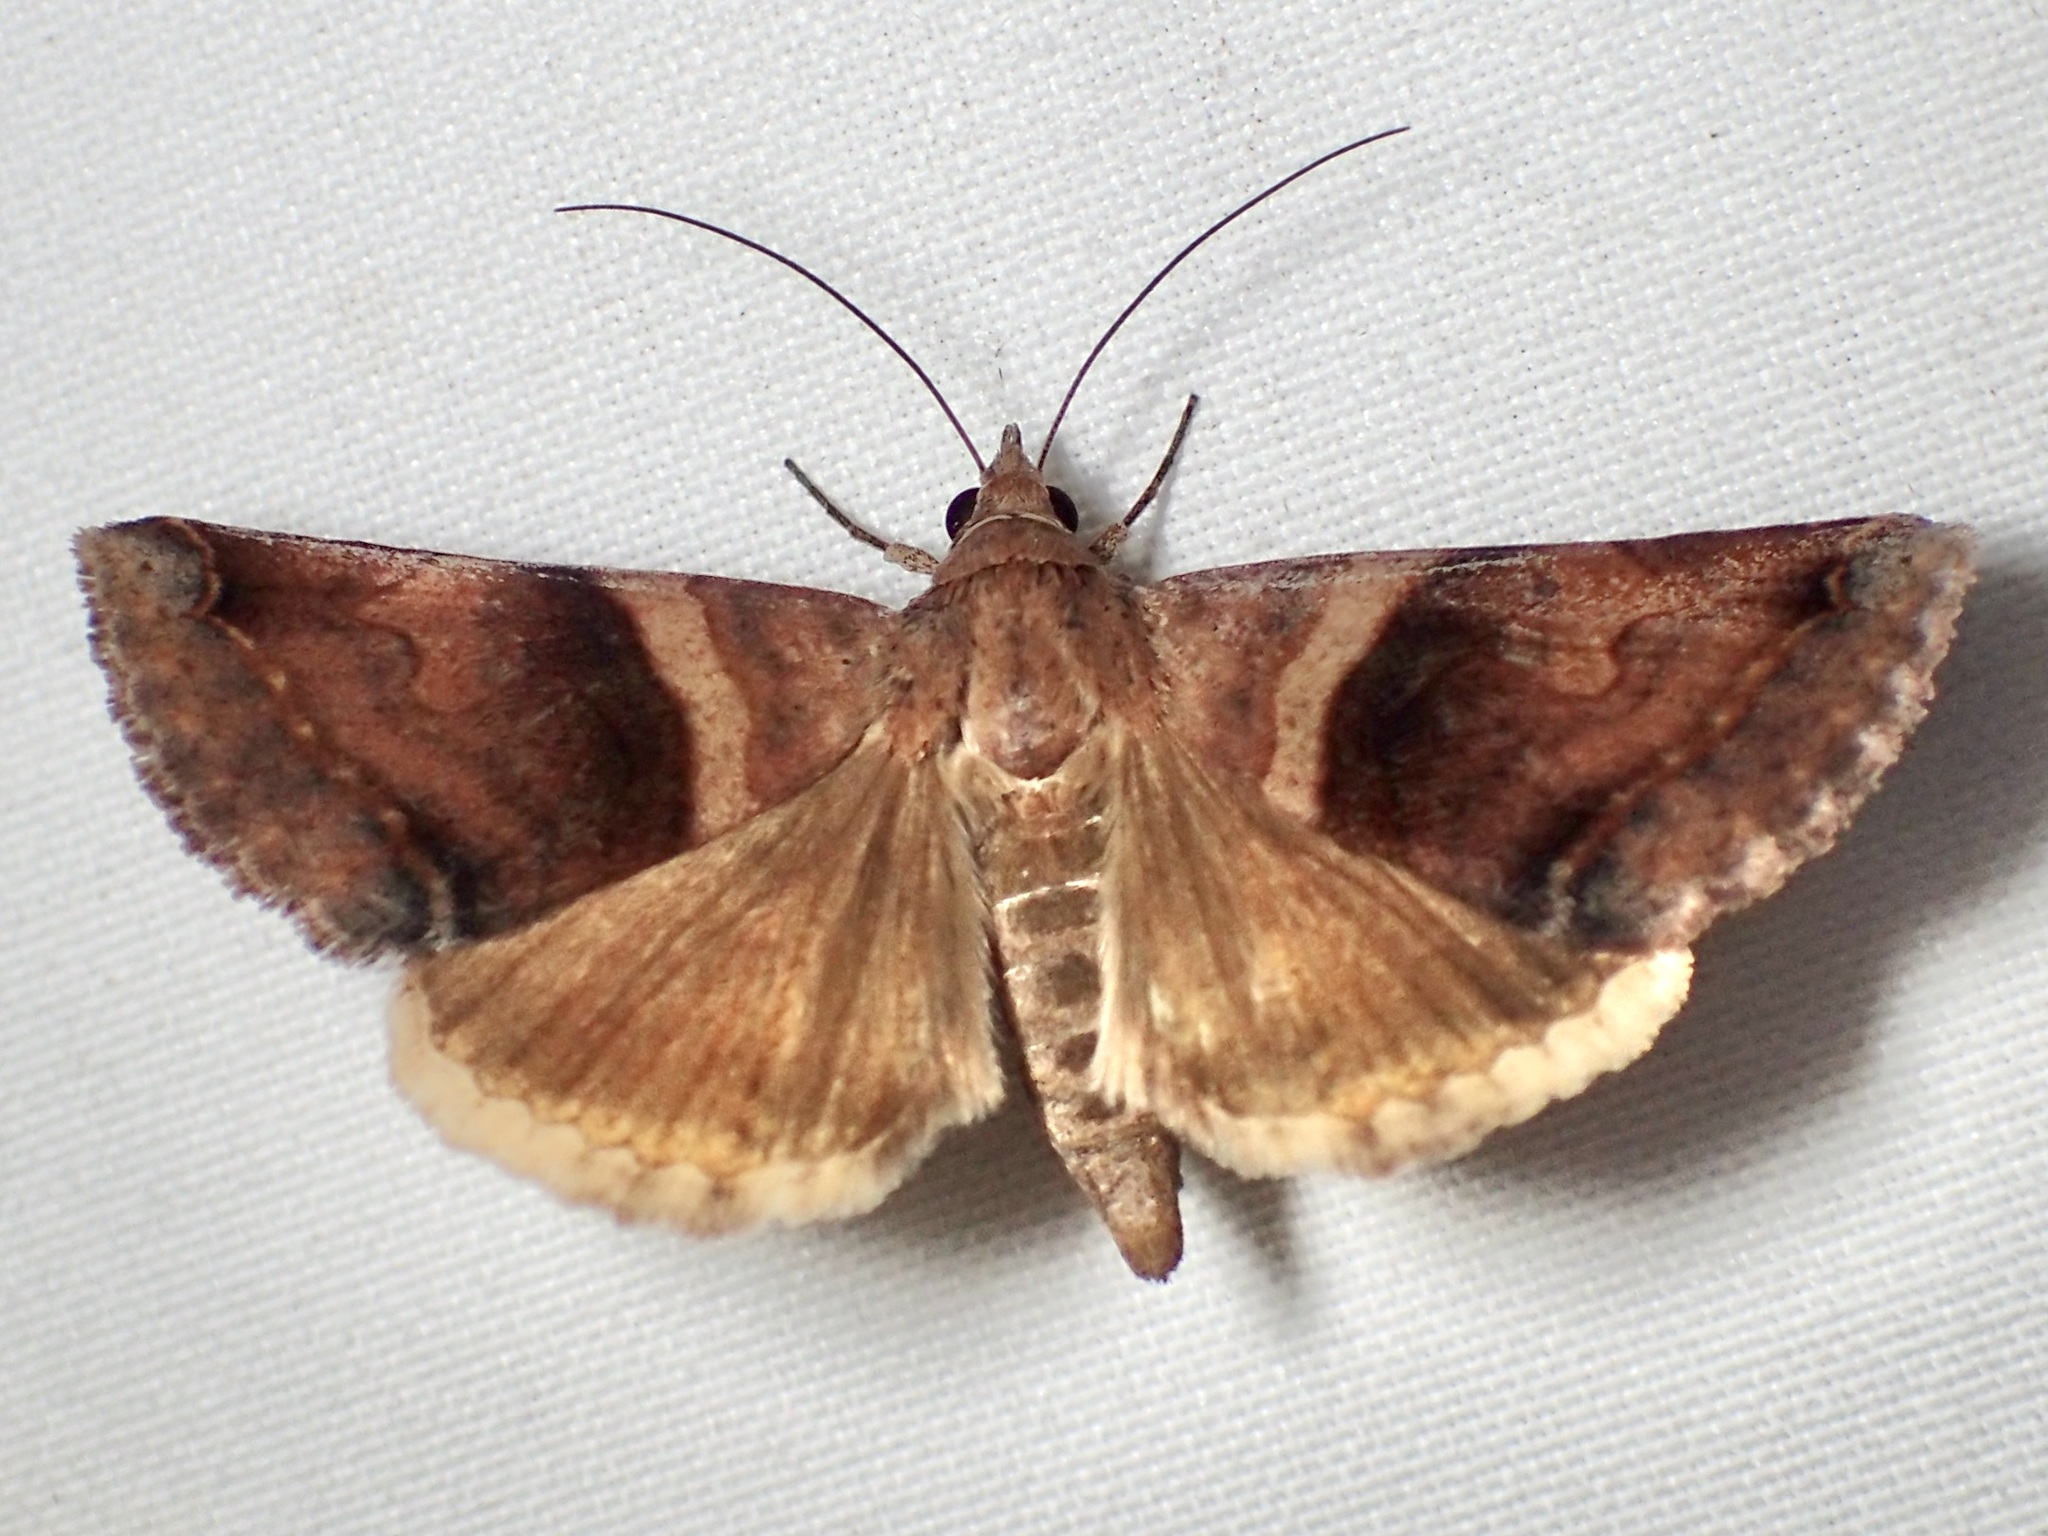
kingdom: Animalia
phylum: Arthropoda
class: Insecta
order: Lepidoptera
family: Erebidae
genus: Panula
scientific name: Panula inconstans
